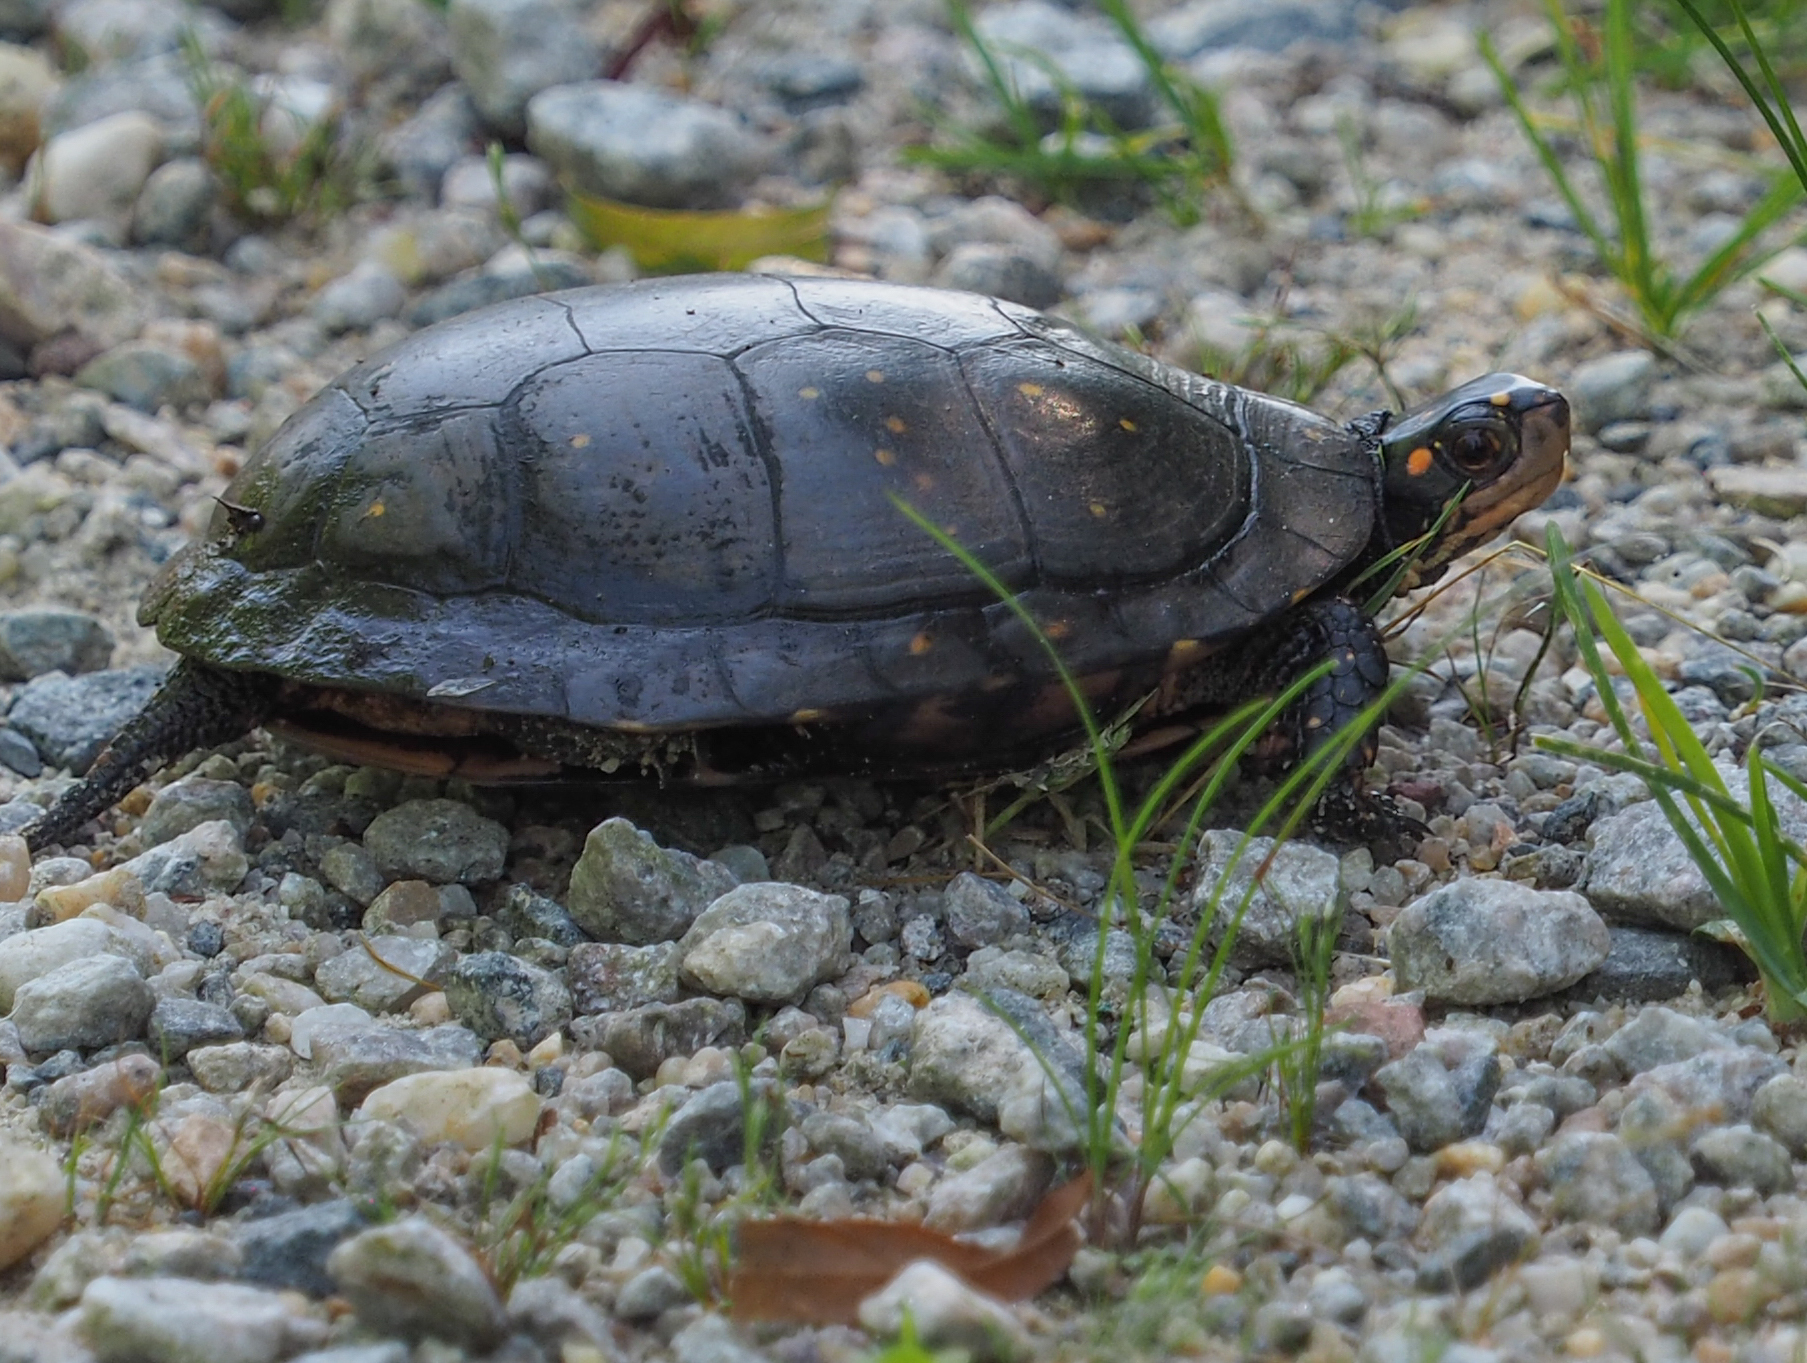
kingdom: Animalia
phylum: Chordata
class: Testudines
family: Emydidae
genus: Clemmys
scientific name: Clemmys guttata
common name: Spotted turtle
